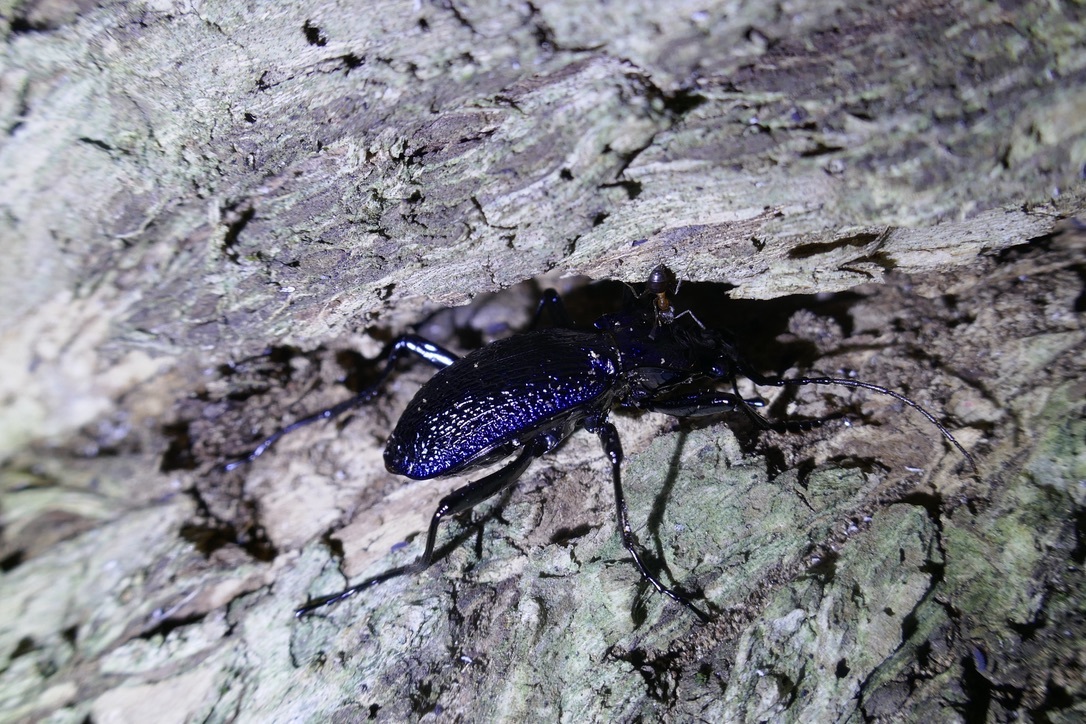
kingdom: Animalia
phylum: Arthropoda
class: Insecta
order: Coleoptera
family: Carabidae
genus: Carabus
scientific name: Carabus intricatus
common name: Blue ground beetle
